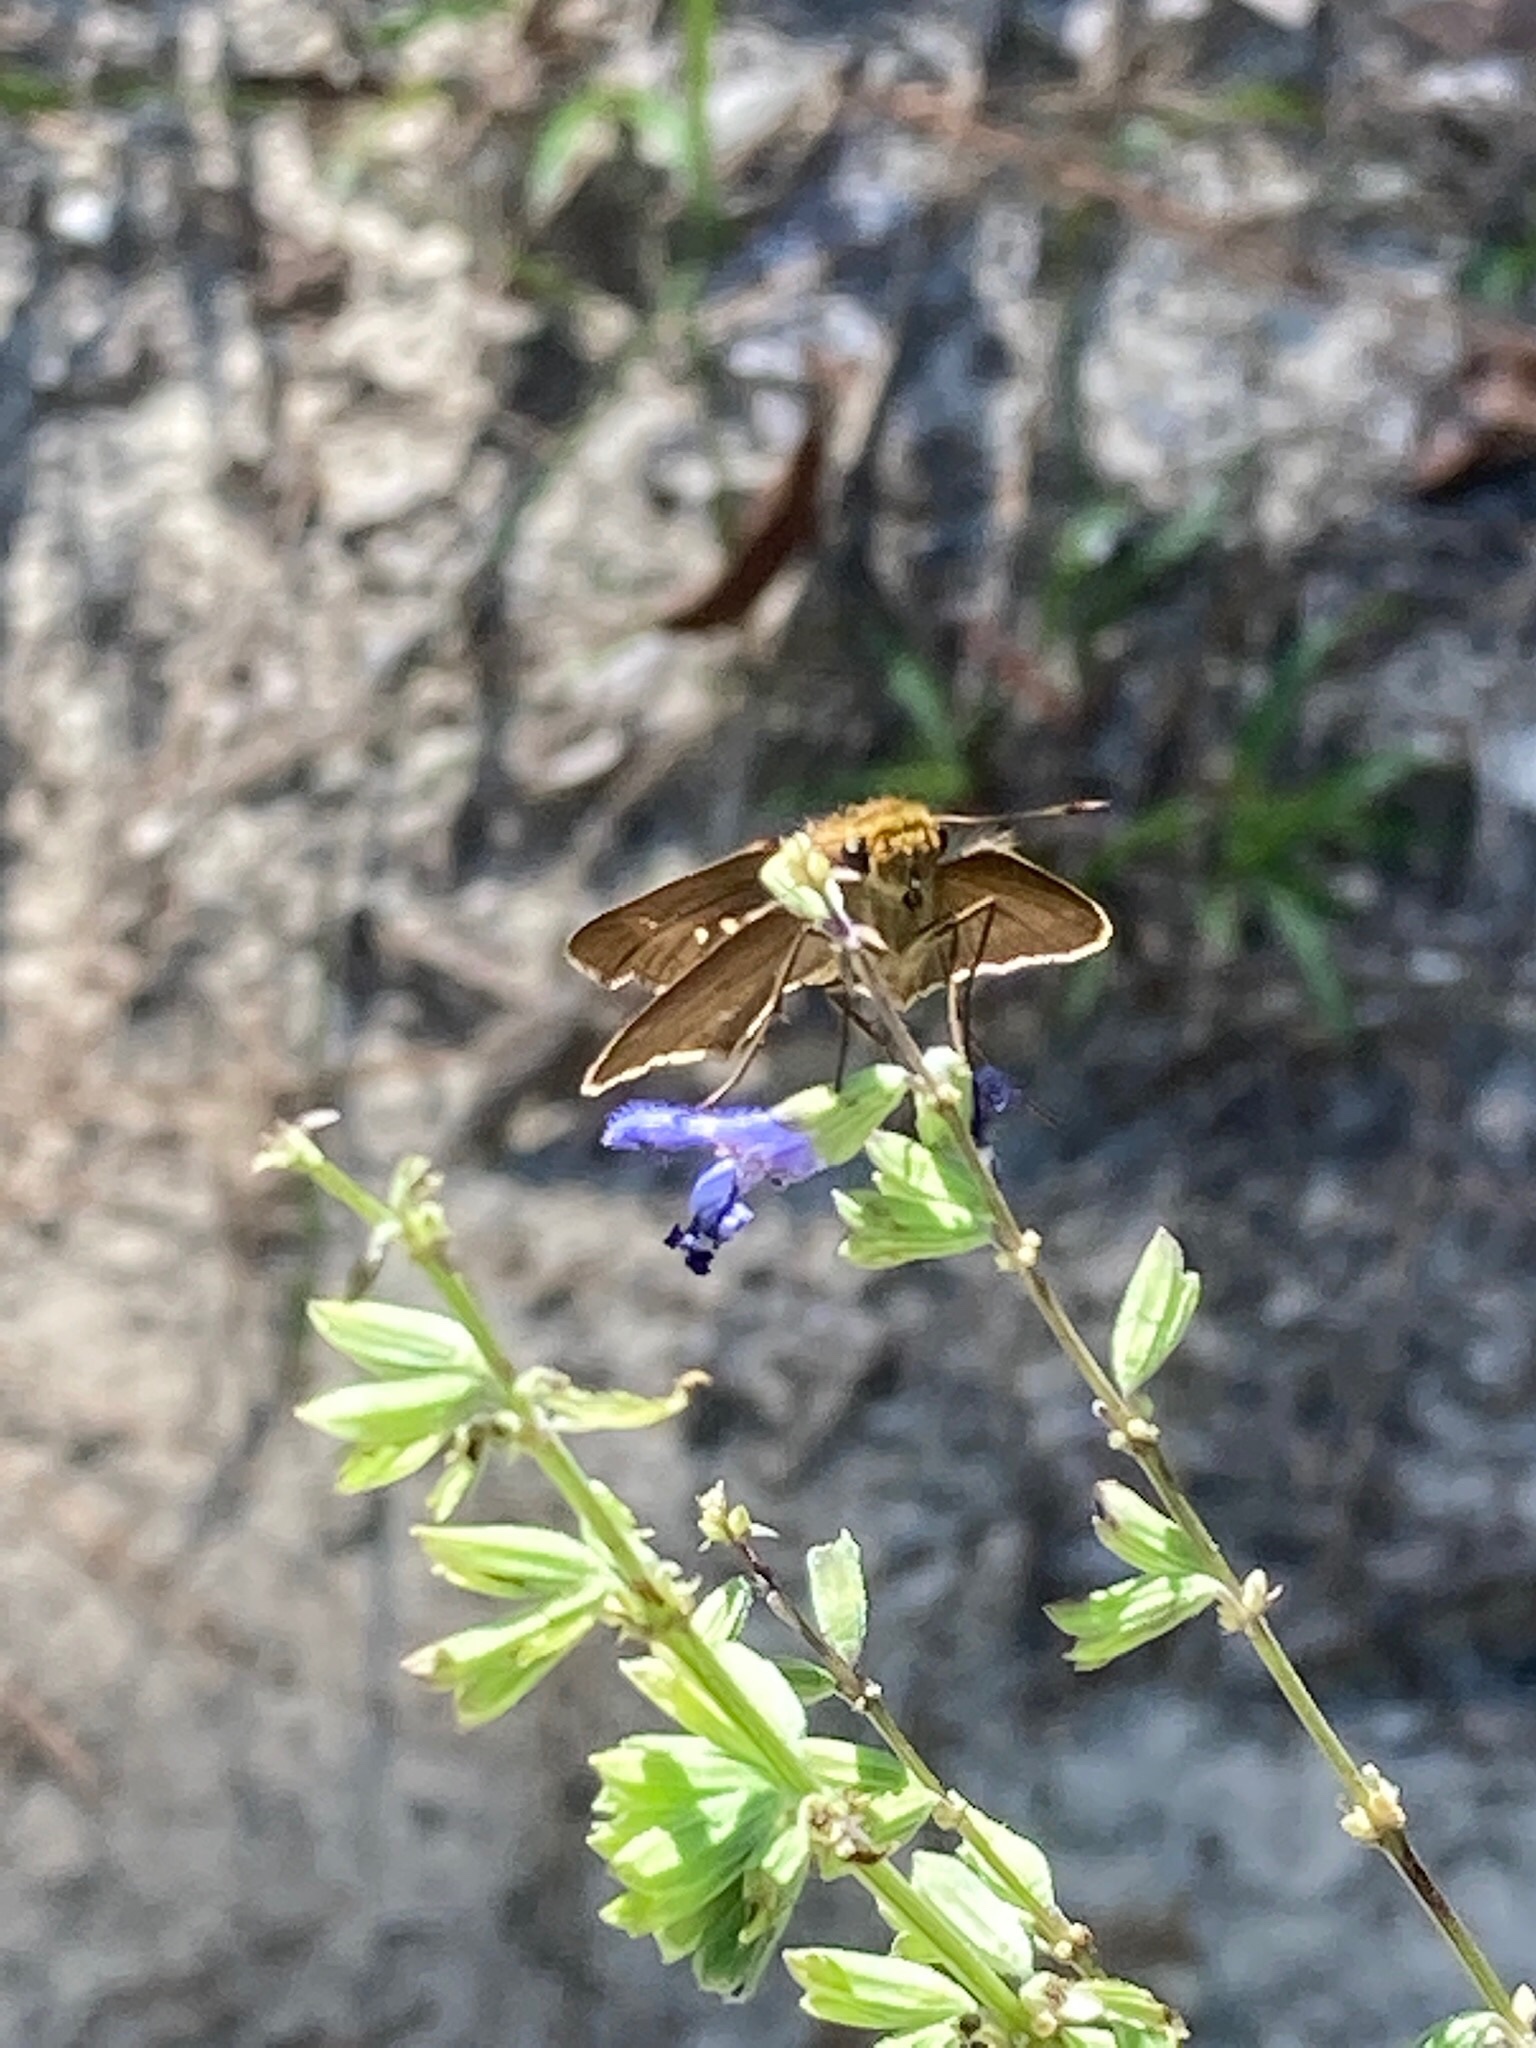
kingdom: Animalia
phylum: Arthropoda
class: Insecta
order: Lepidoptera
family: Hesperiidae
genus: Panoquina
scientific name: Panoquina ocola
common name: Ocola skipper
